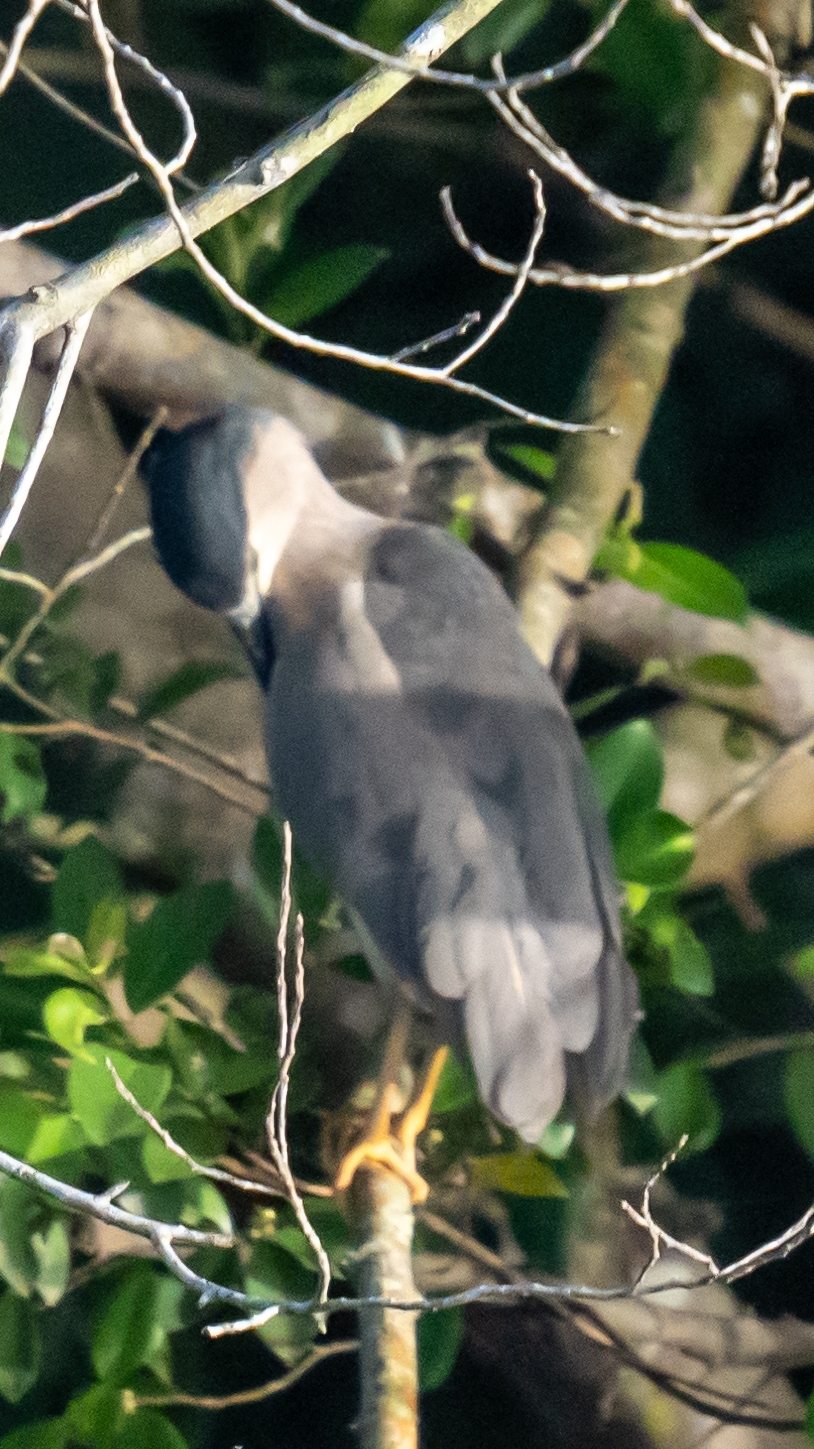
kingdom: Animalia
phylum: Chordata
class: Aves
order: Pelecaniformes
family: Ardeidae
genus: Nycticorax
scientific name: Nycticorax nycticorax
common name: Black-crowned night heron
